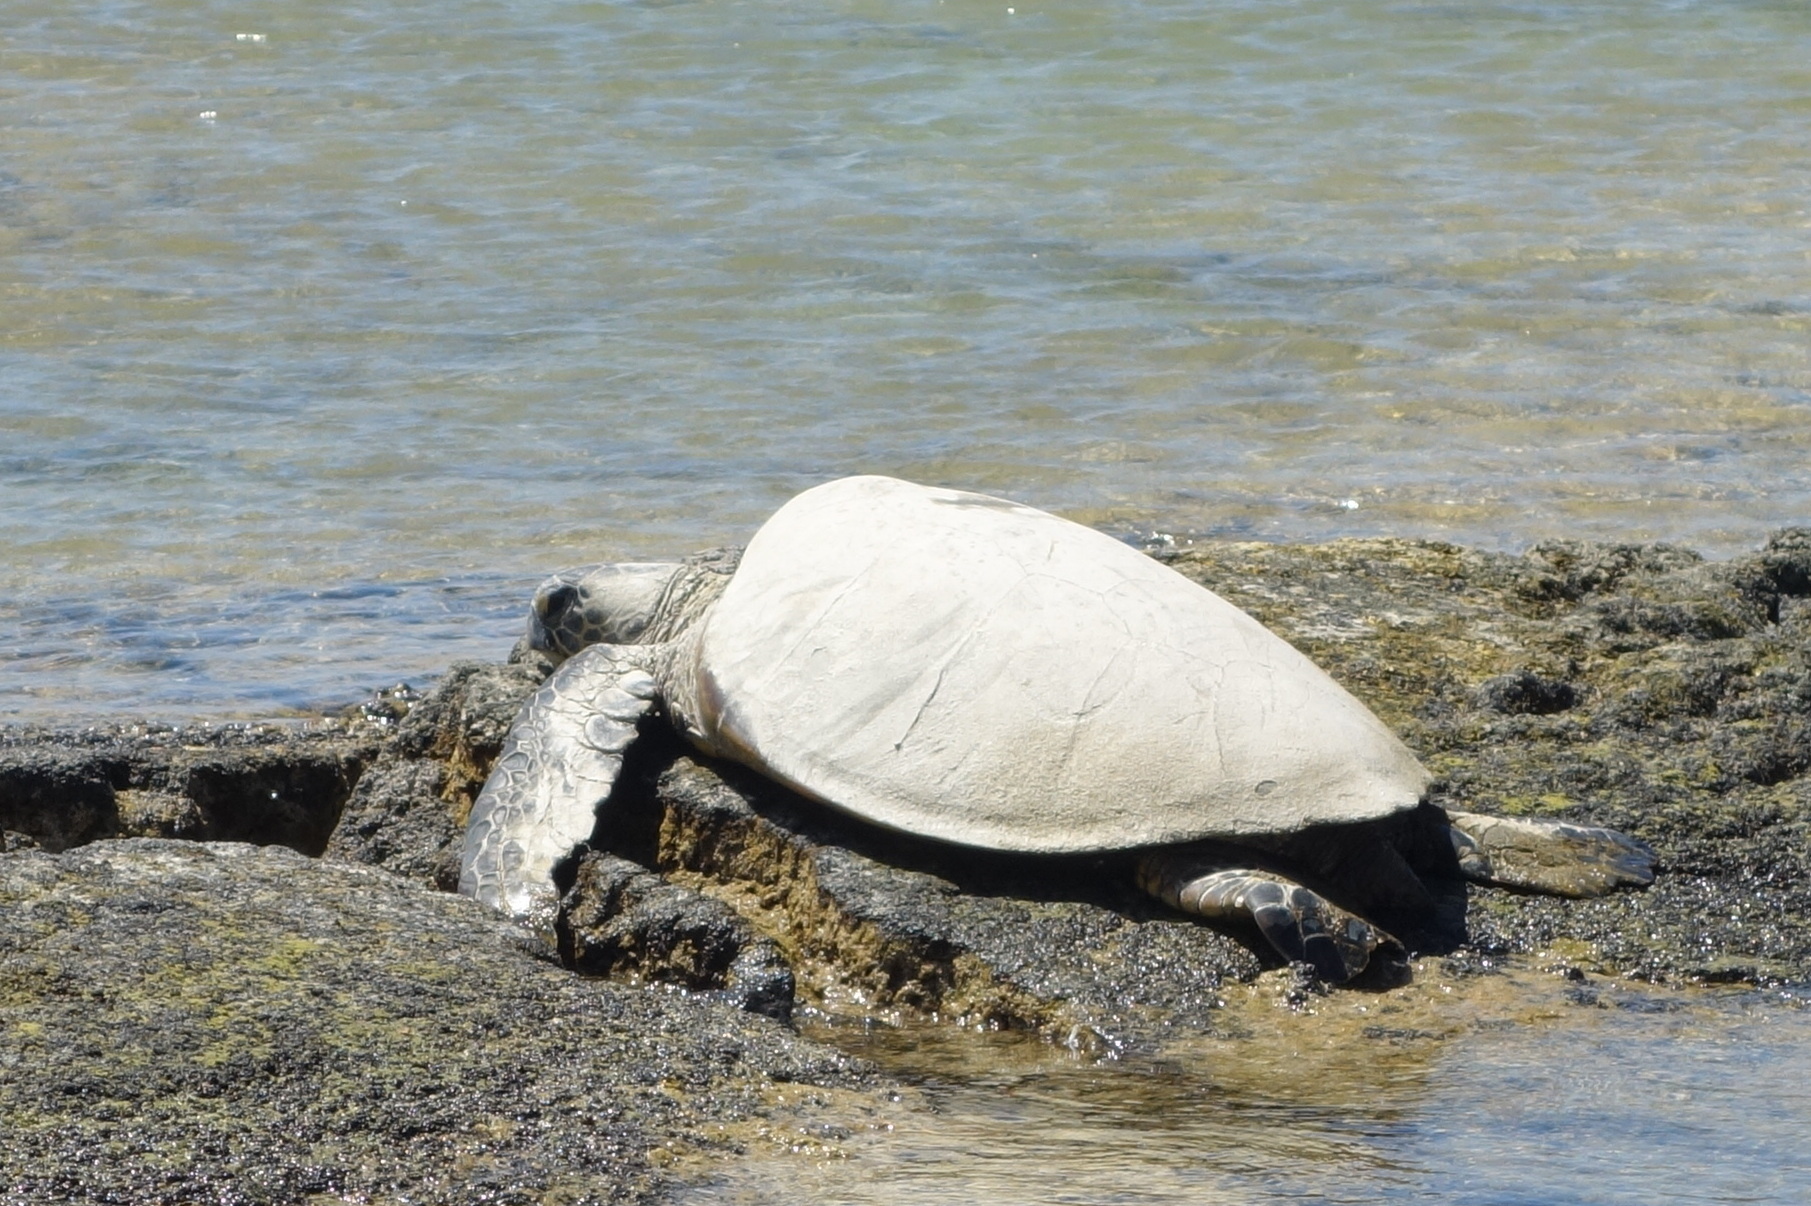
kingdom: Animalia
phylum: Chordata
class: Testudines
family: Cheloniidae
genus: Chelonia
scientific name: Chelonia mydas
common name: Green turtle
